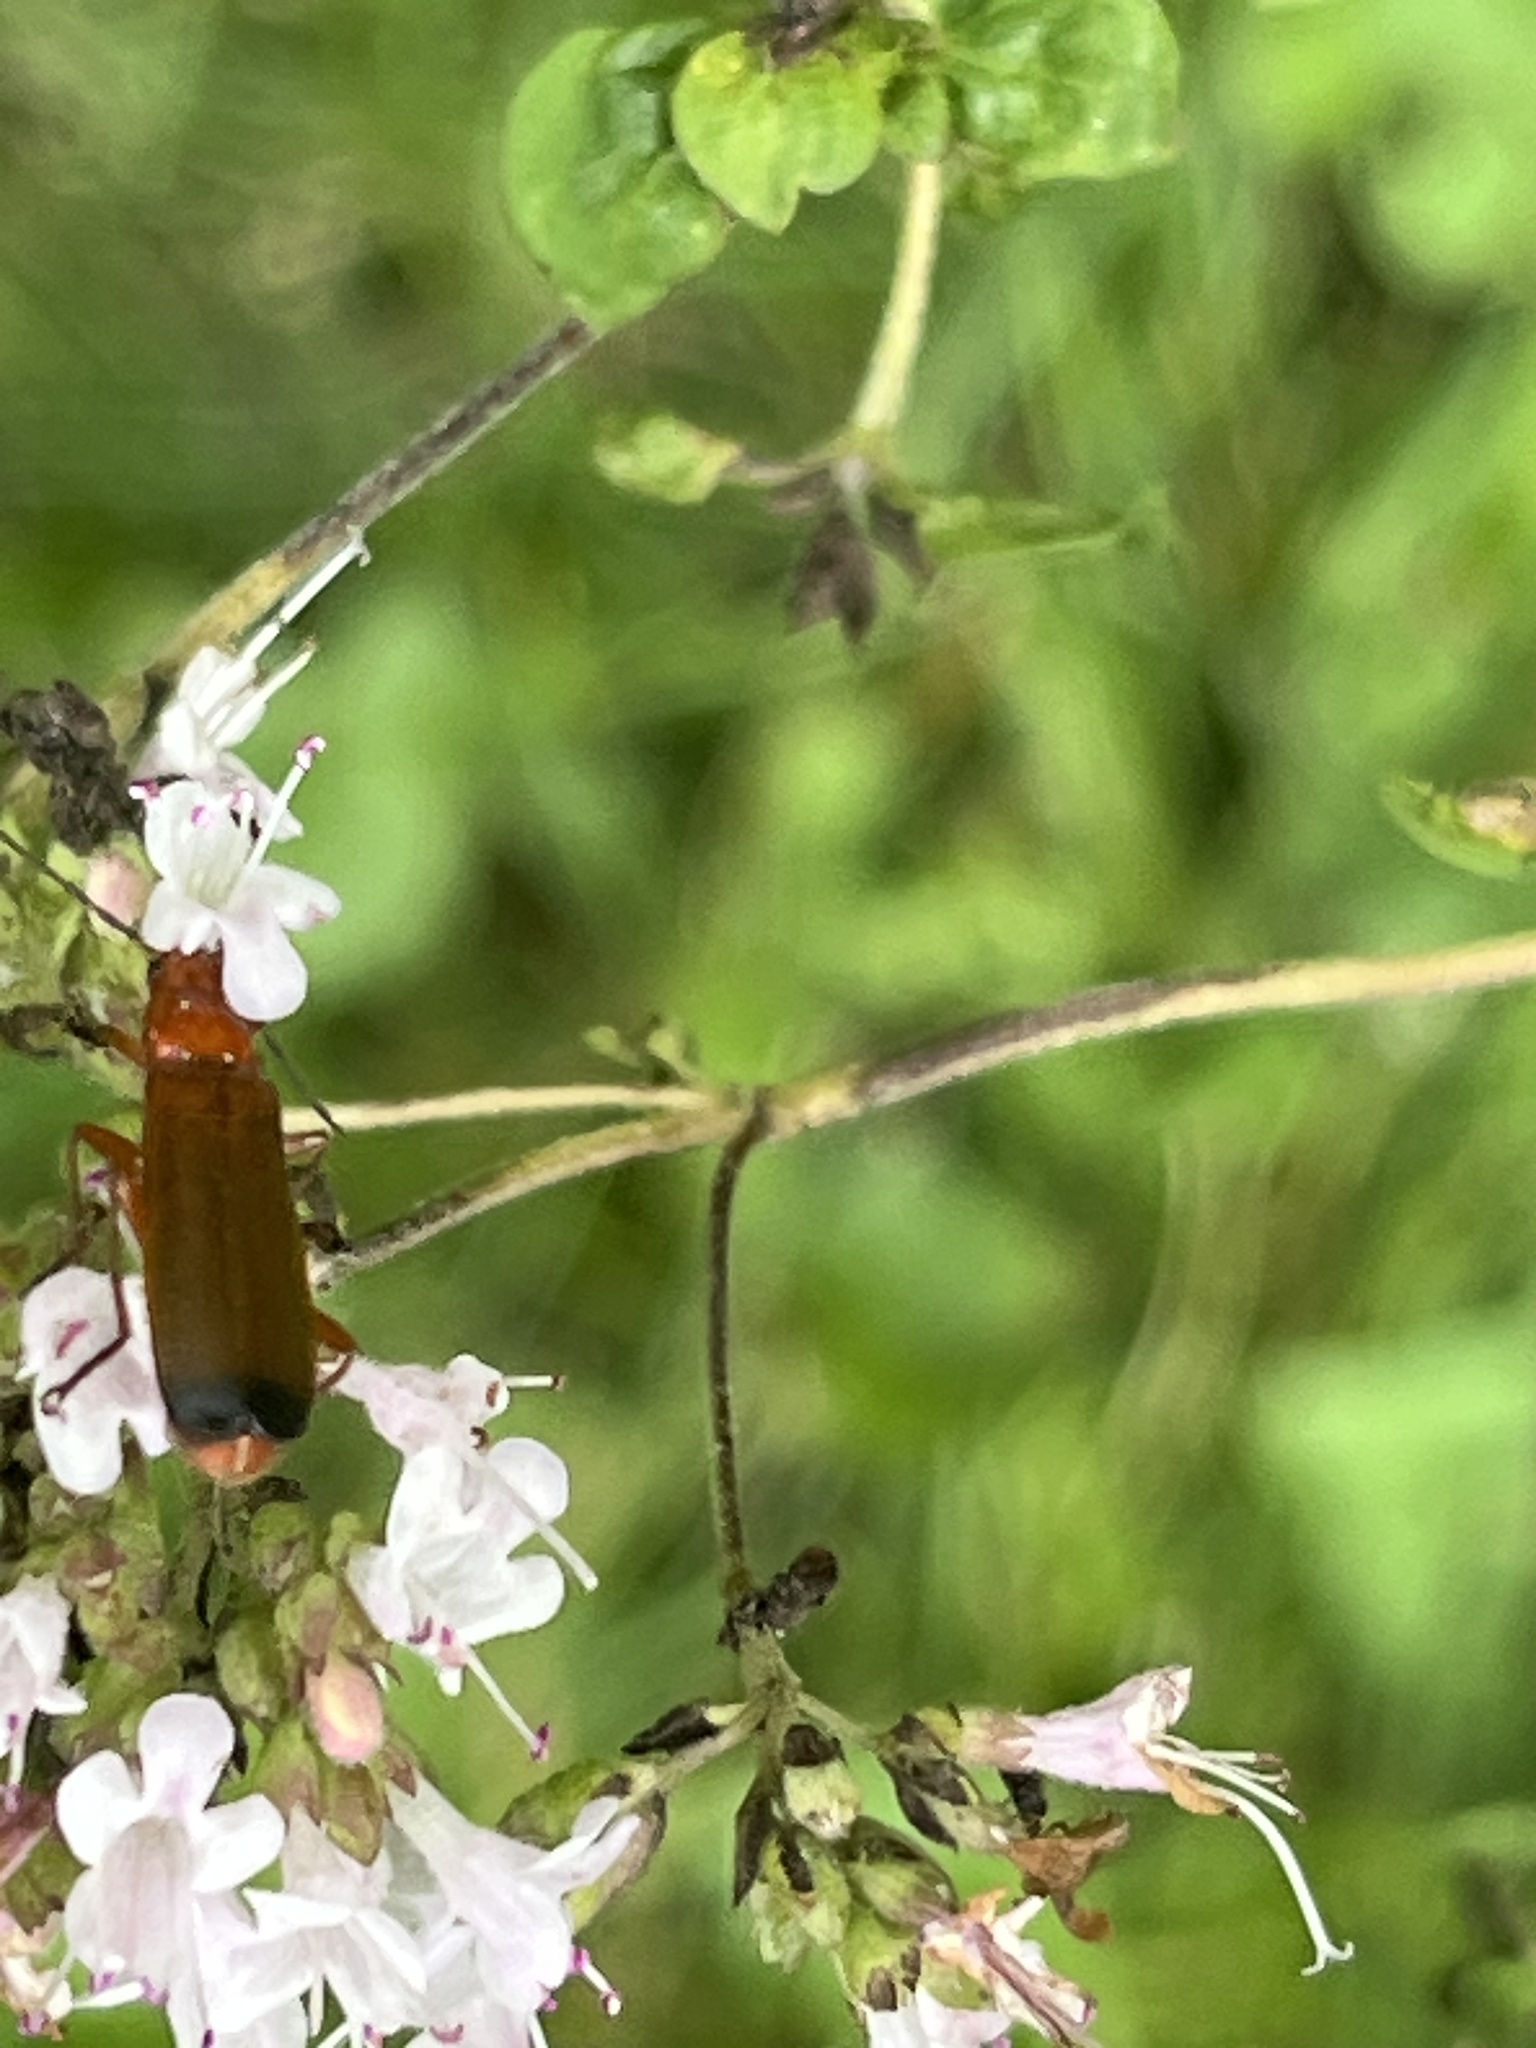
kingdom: Animalia
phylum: Arthropoda
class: Insecta
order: Coleoptera
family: Cantharidae
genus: Rhagonycha
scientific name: Rhagonycha fulva
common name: Common red soldier beetle
